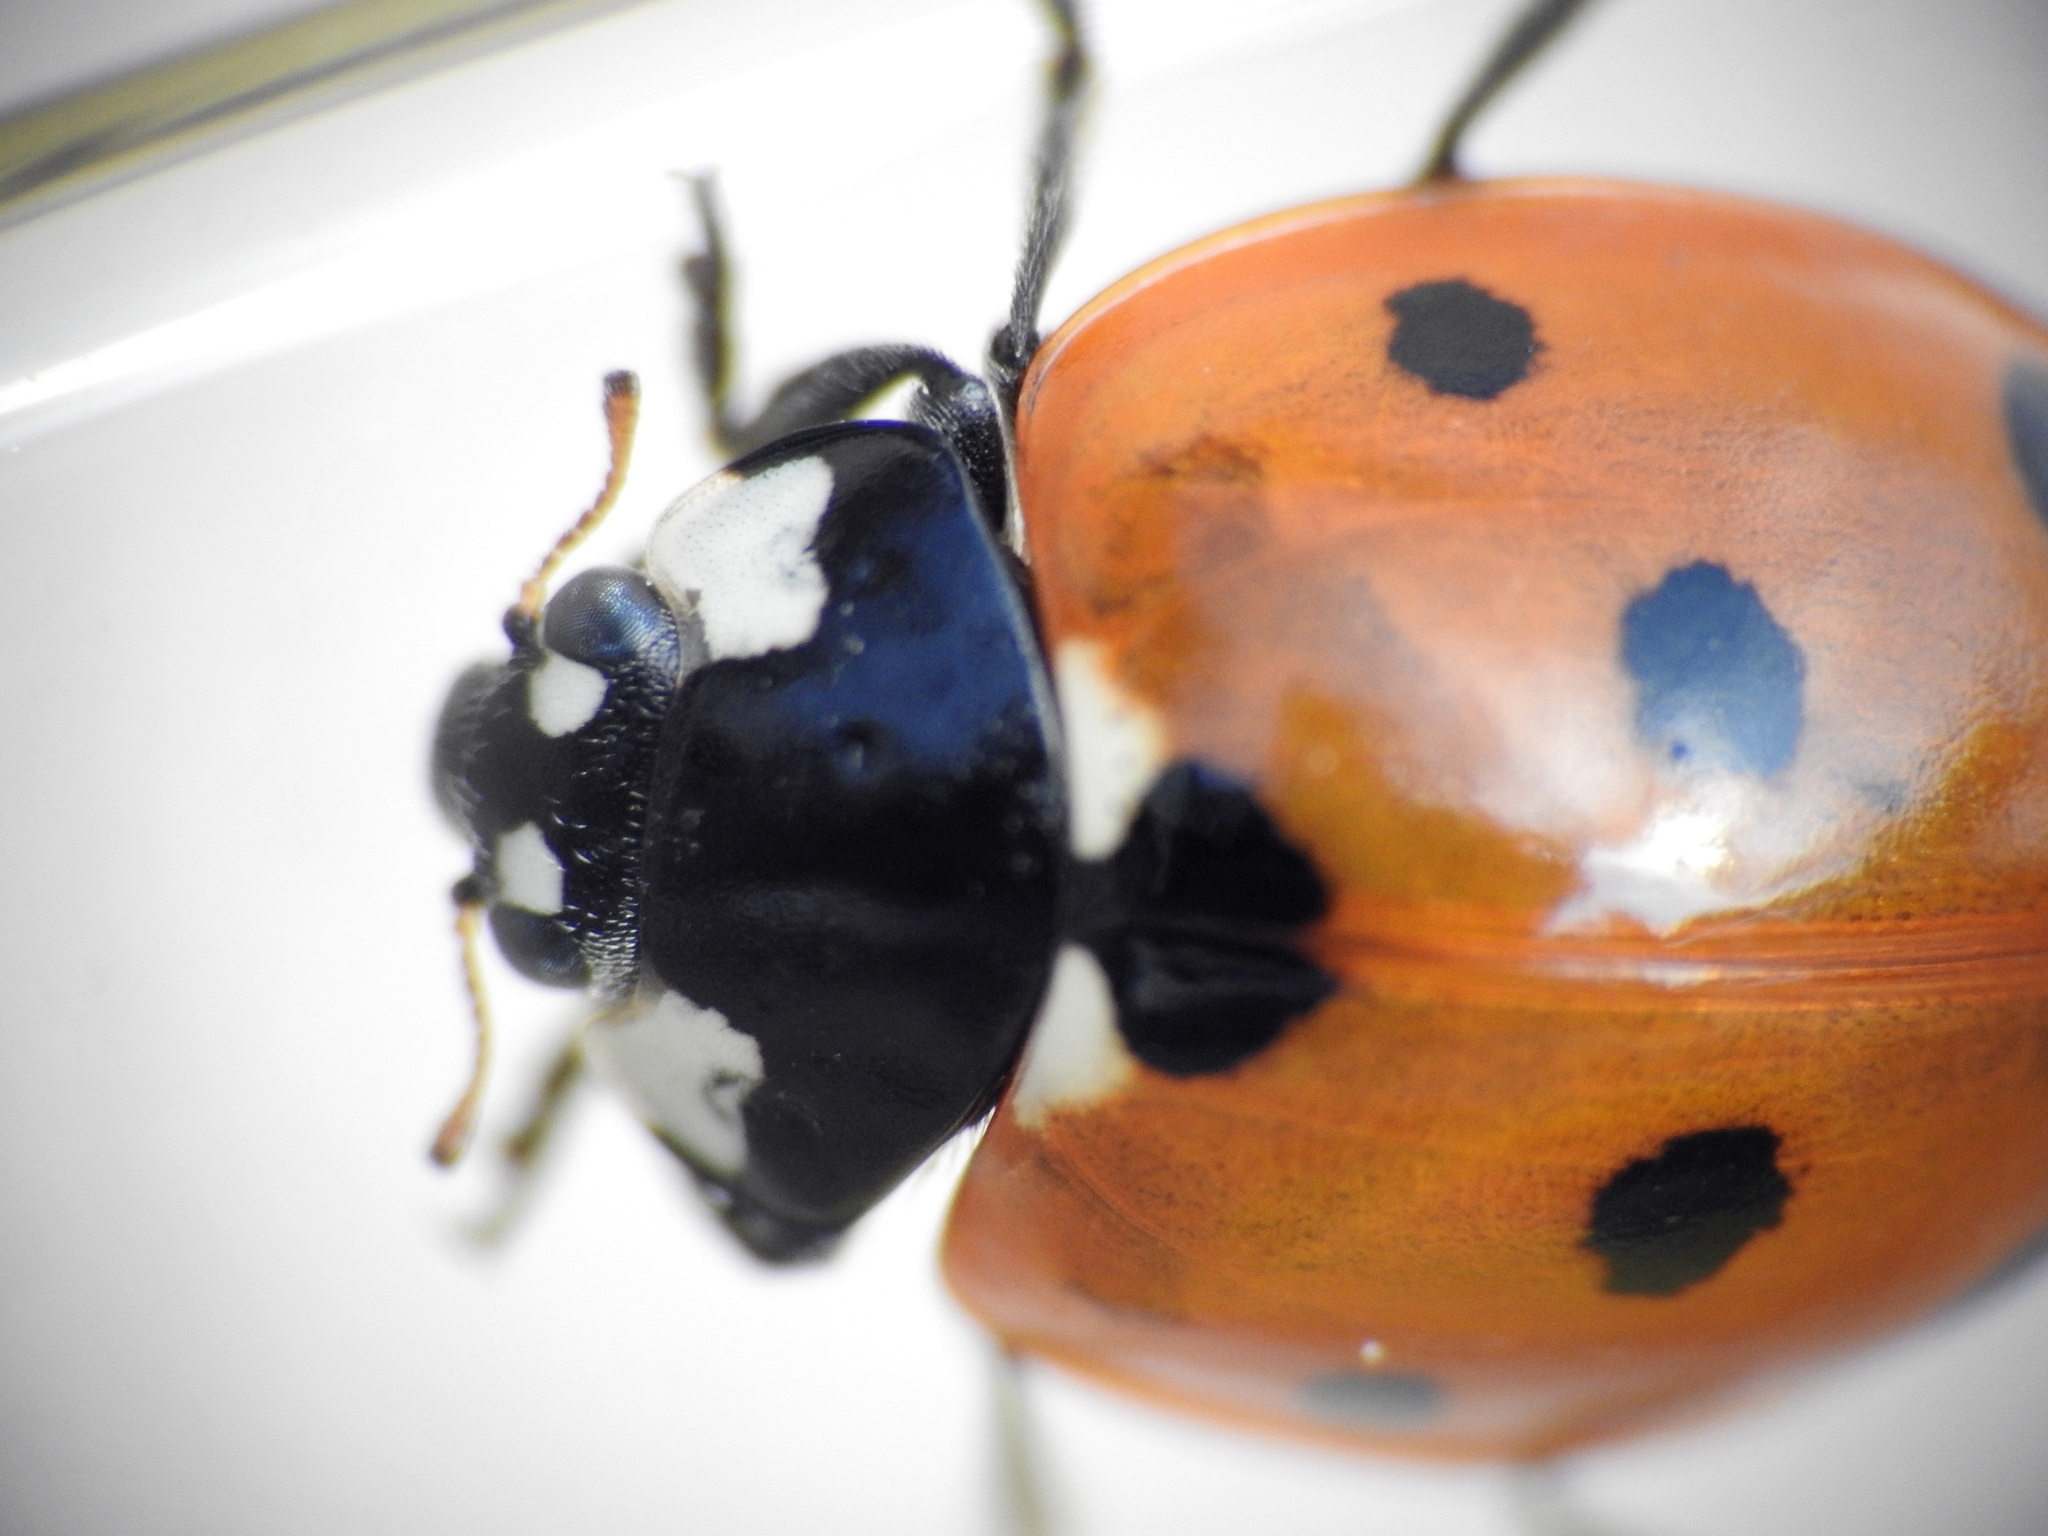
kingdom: Animalia
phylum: Arthropoda
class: Insecta
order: Coleoptera
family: Coccinellidae
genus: Coccinella
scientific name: Coccinella septempunctata
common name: Sevenspotted lady beetle
